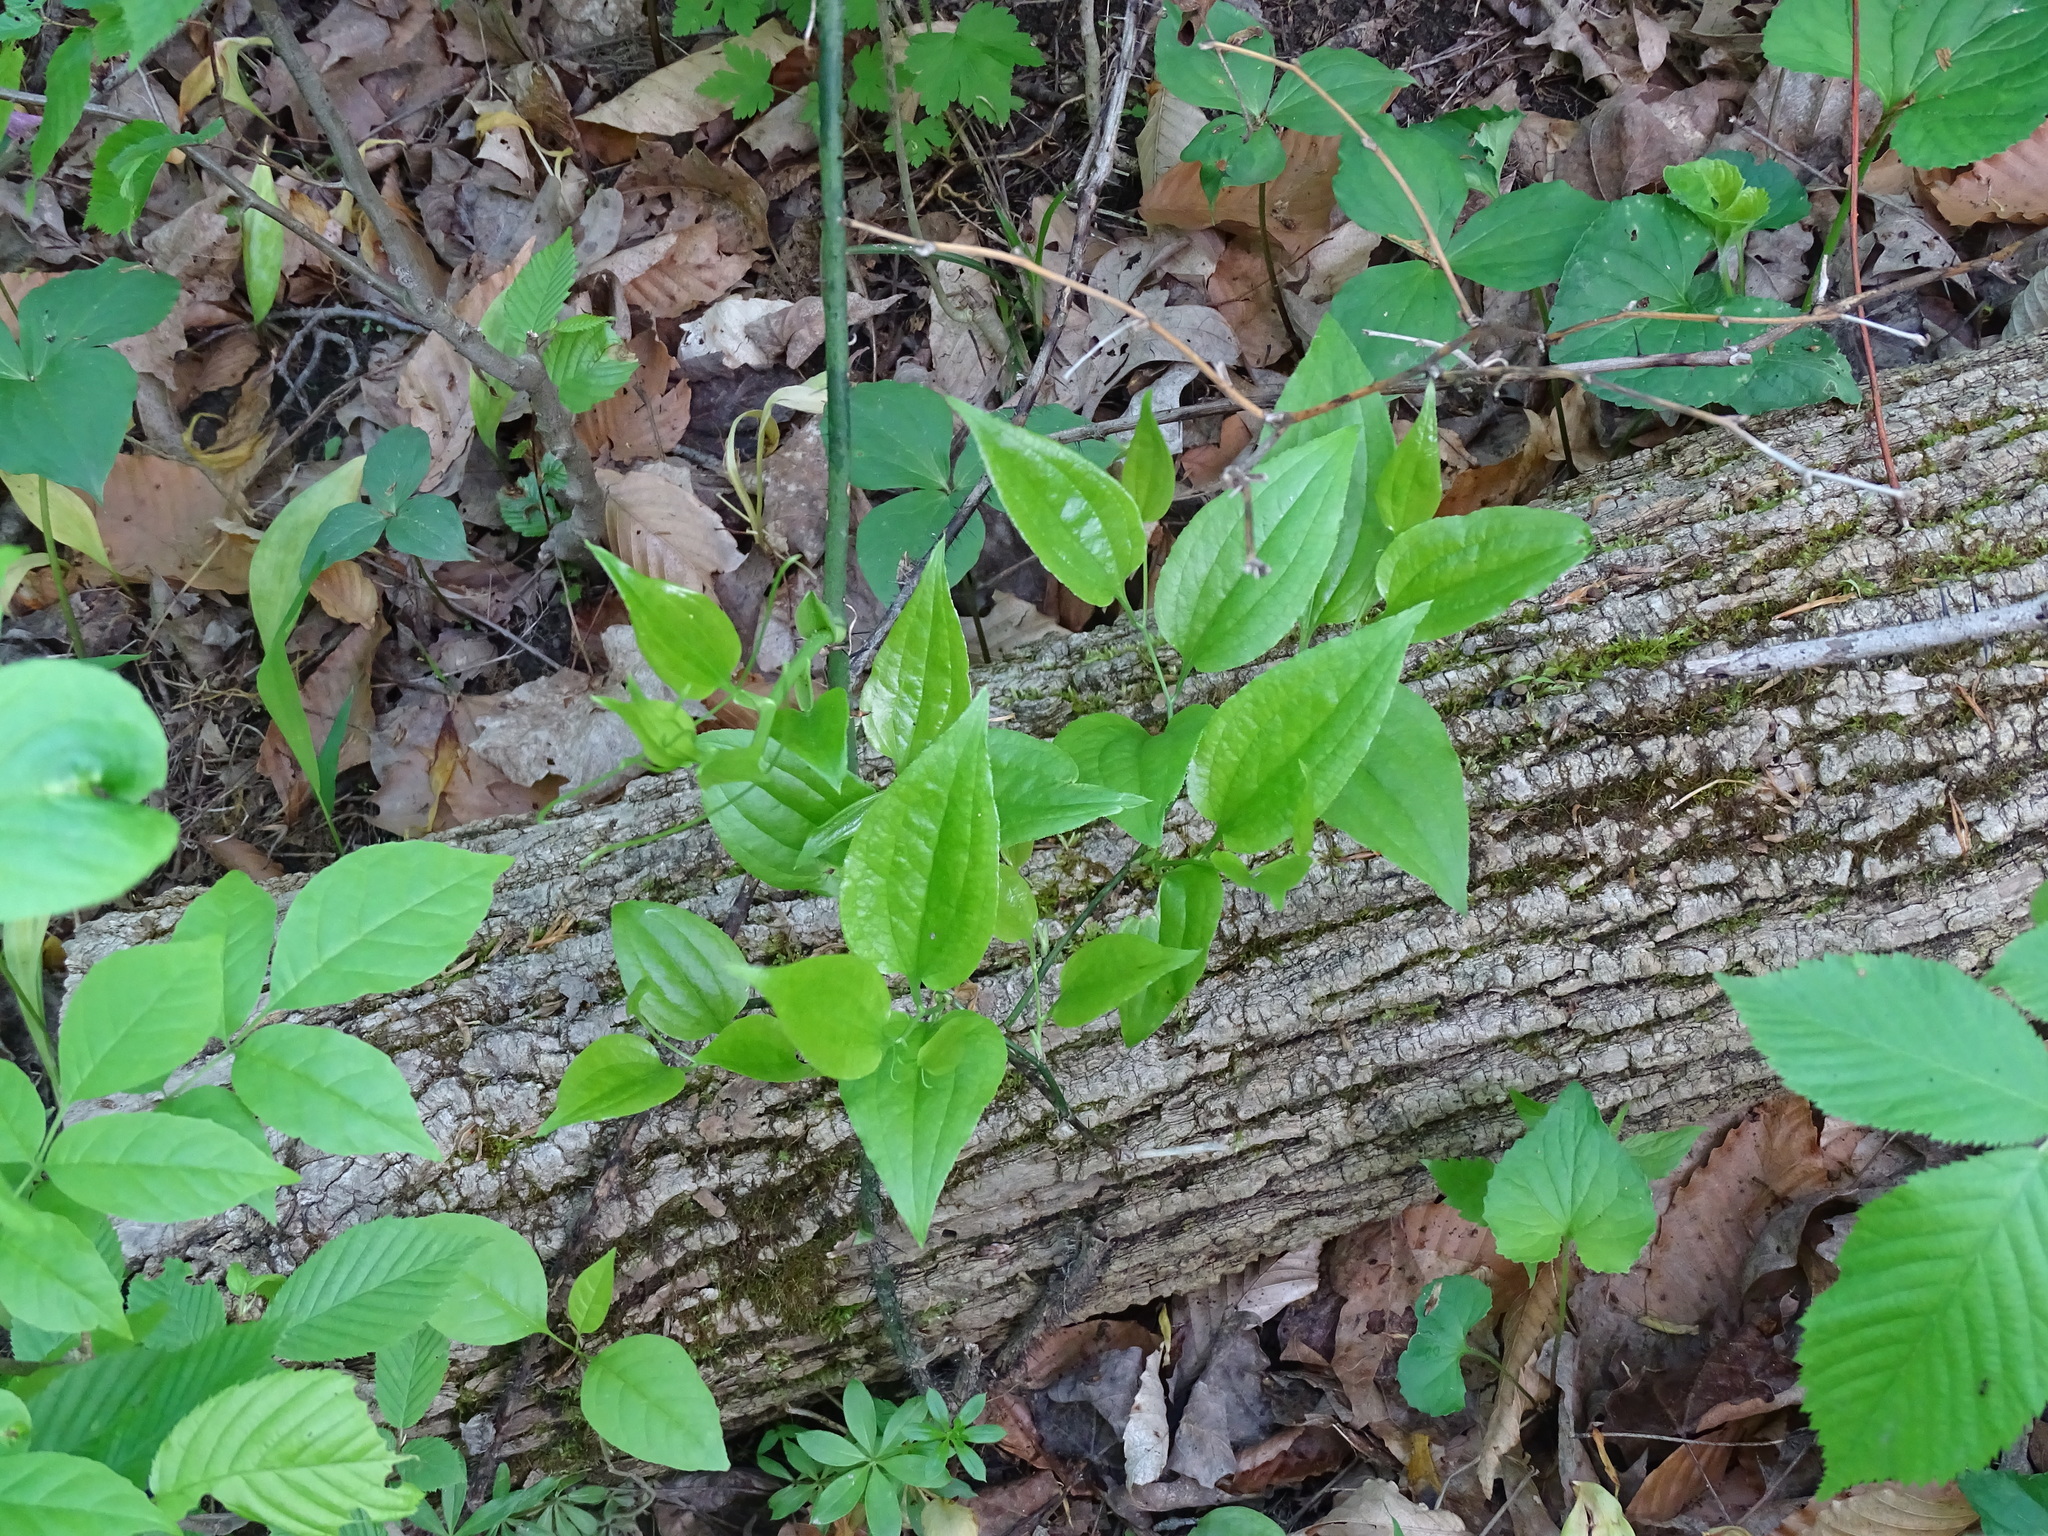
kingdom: Plantae
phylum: Tracheophyta
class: Liliopsida
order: Liliales
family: Smilacaceae
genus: Smilax
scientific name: Smilax tamnoides
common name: Hellfetter
